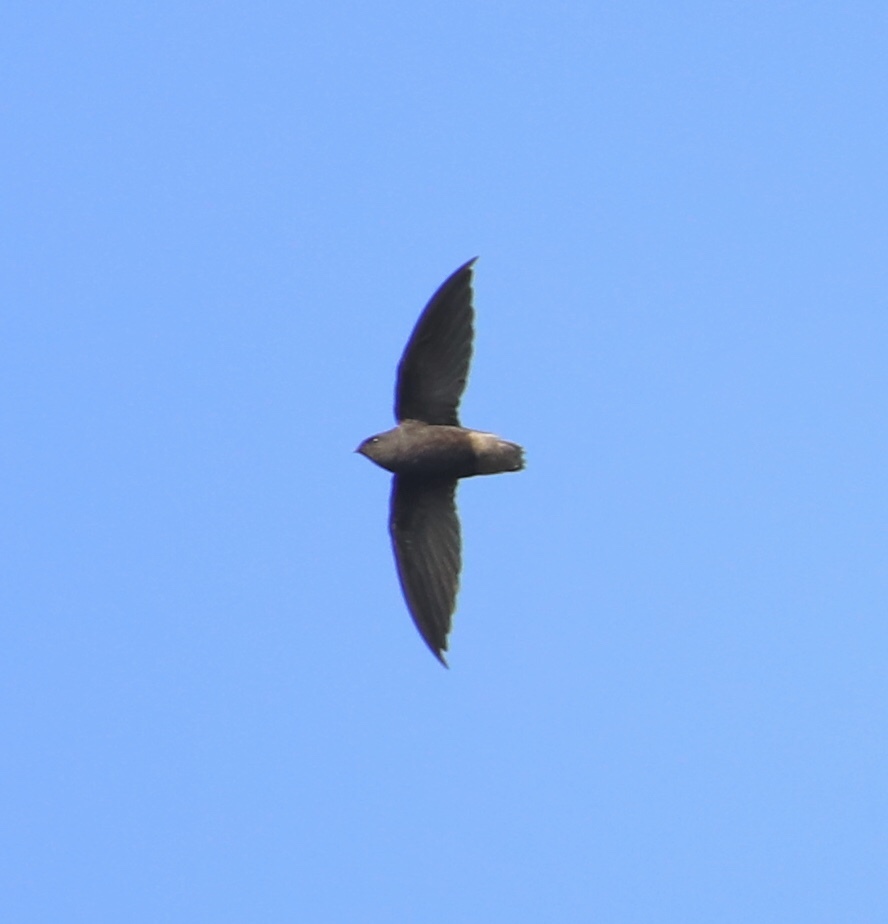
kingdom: Animalia
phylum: Chordata
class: Aves
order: Apodiformes
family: Apodidae
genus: Chaetura
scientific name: Chaetura brachyura
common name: Short-tailed swift
